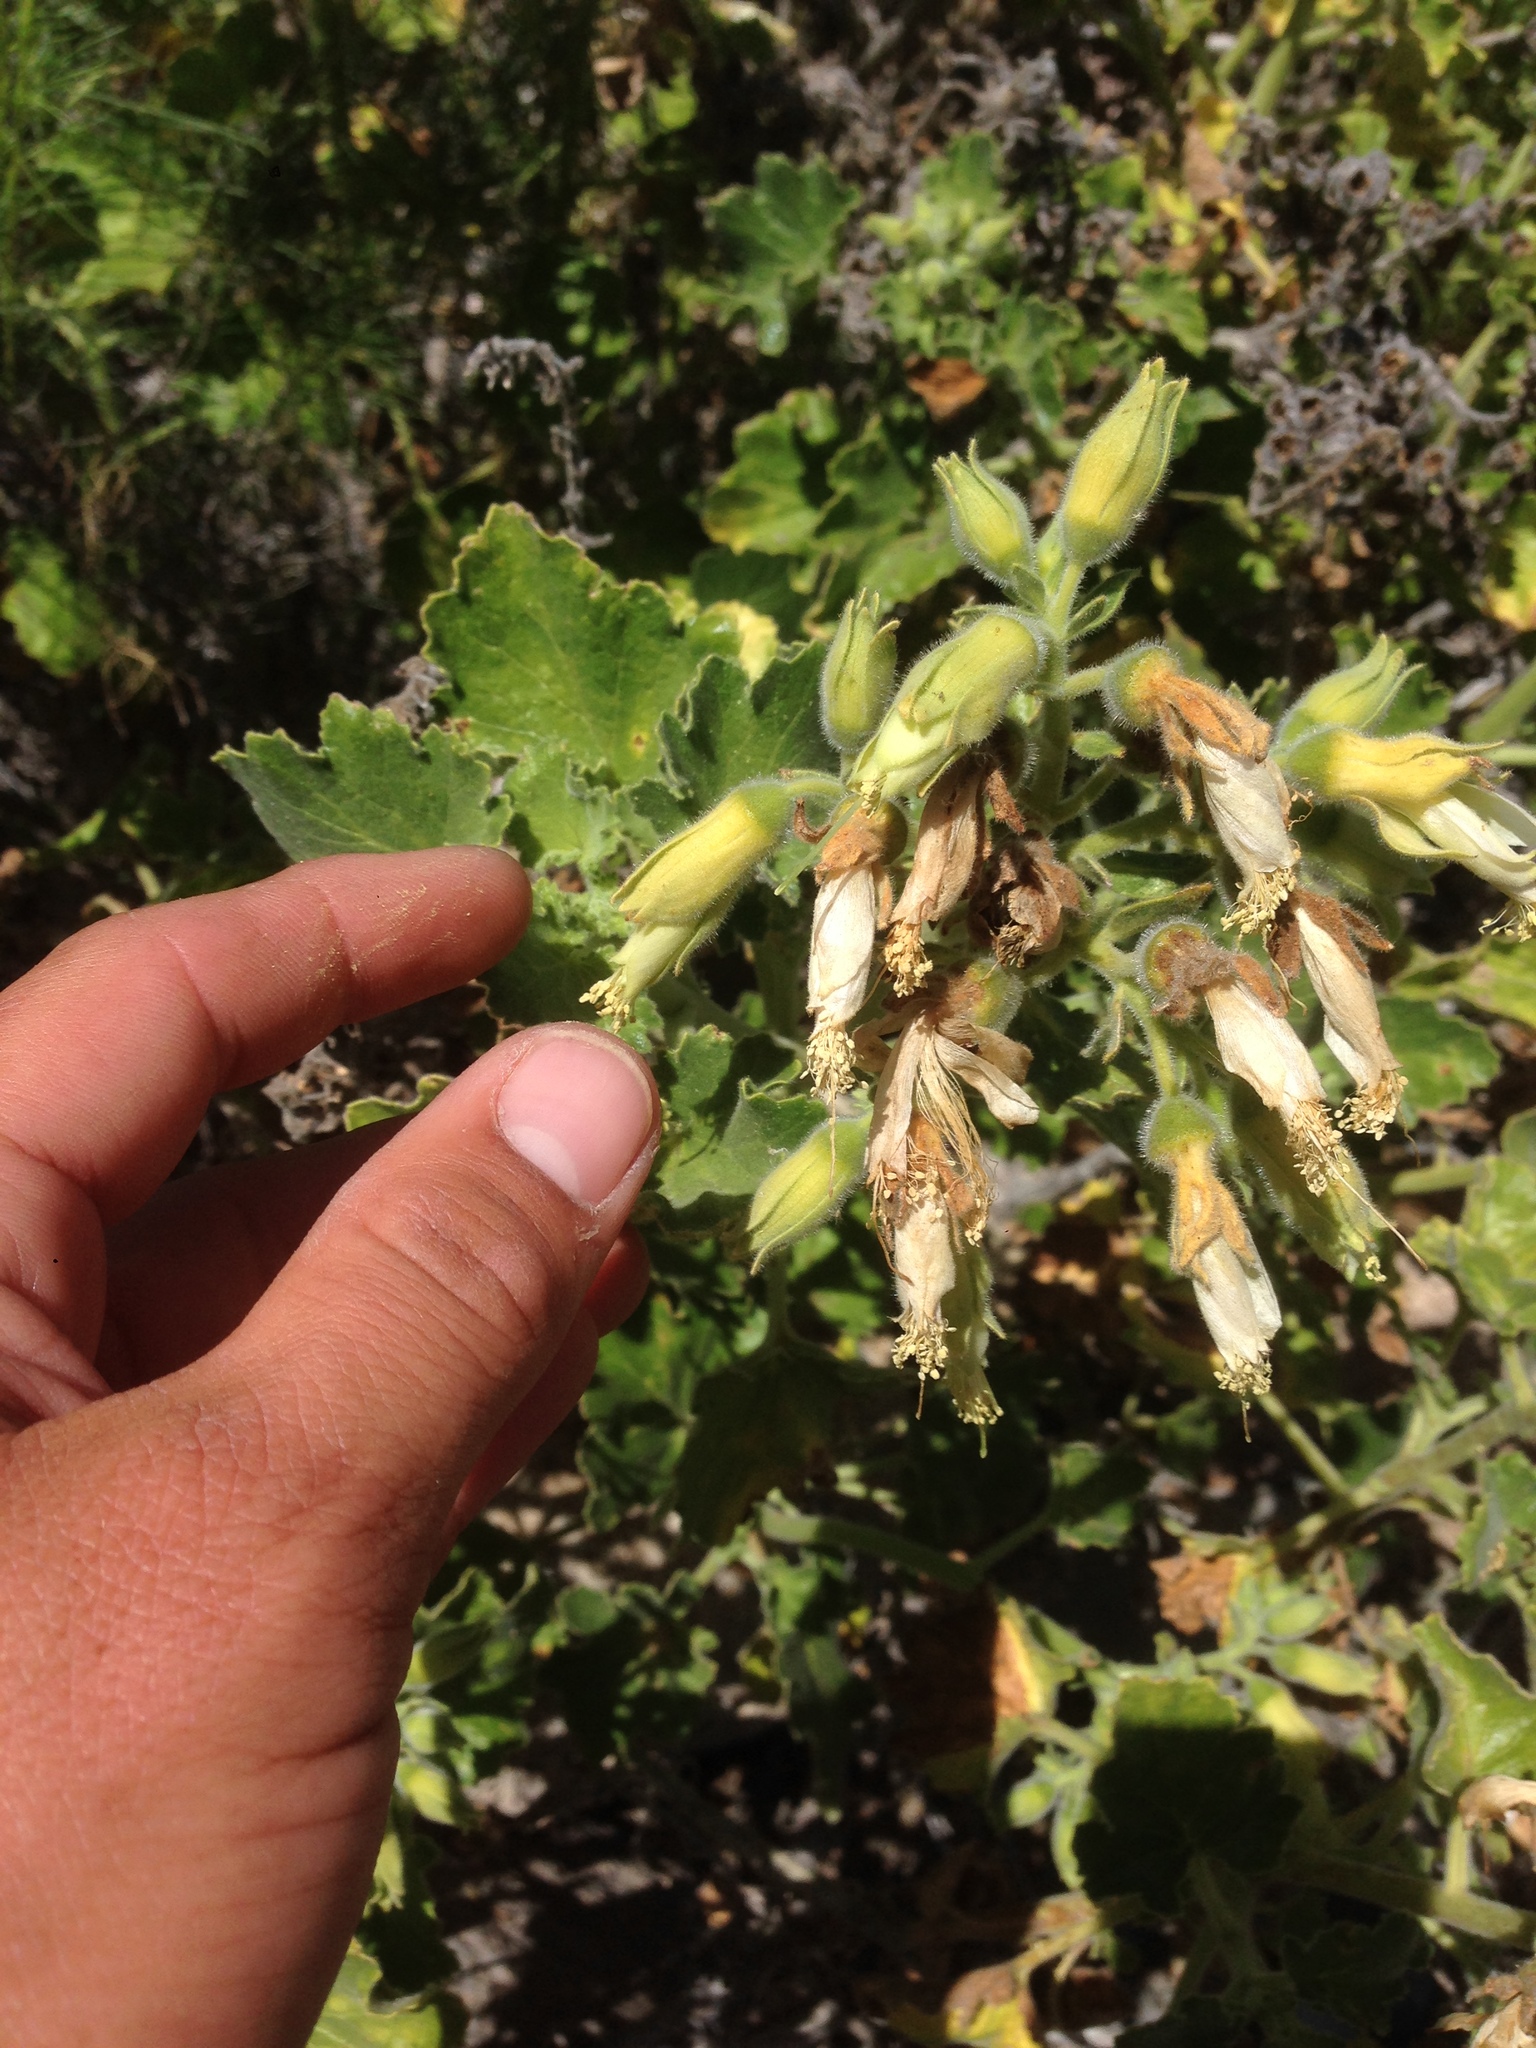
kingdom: Plantae
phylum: Tracheophyta
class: Magnoliopsida
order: Cornales
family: Loasaceae
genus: Eucnide
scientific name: Eucnide cordata
